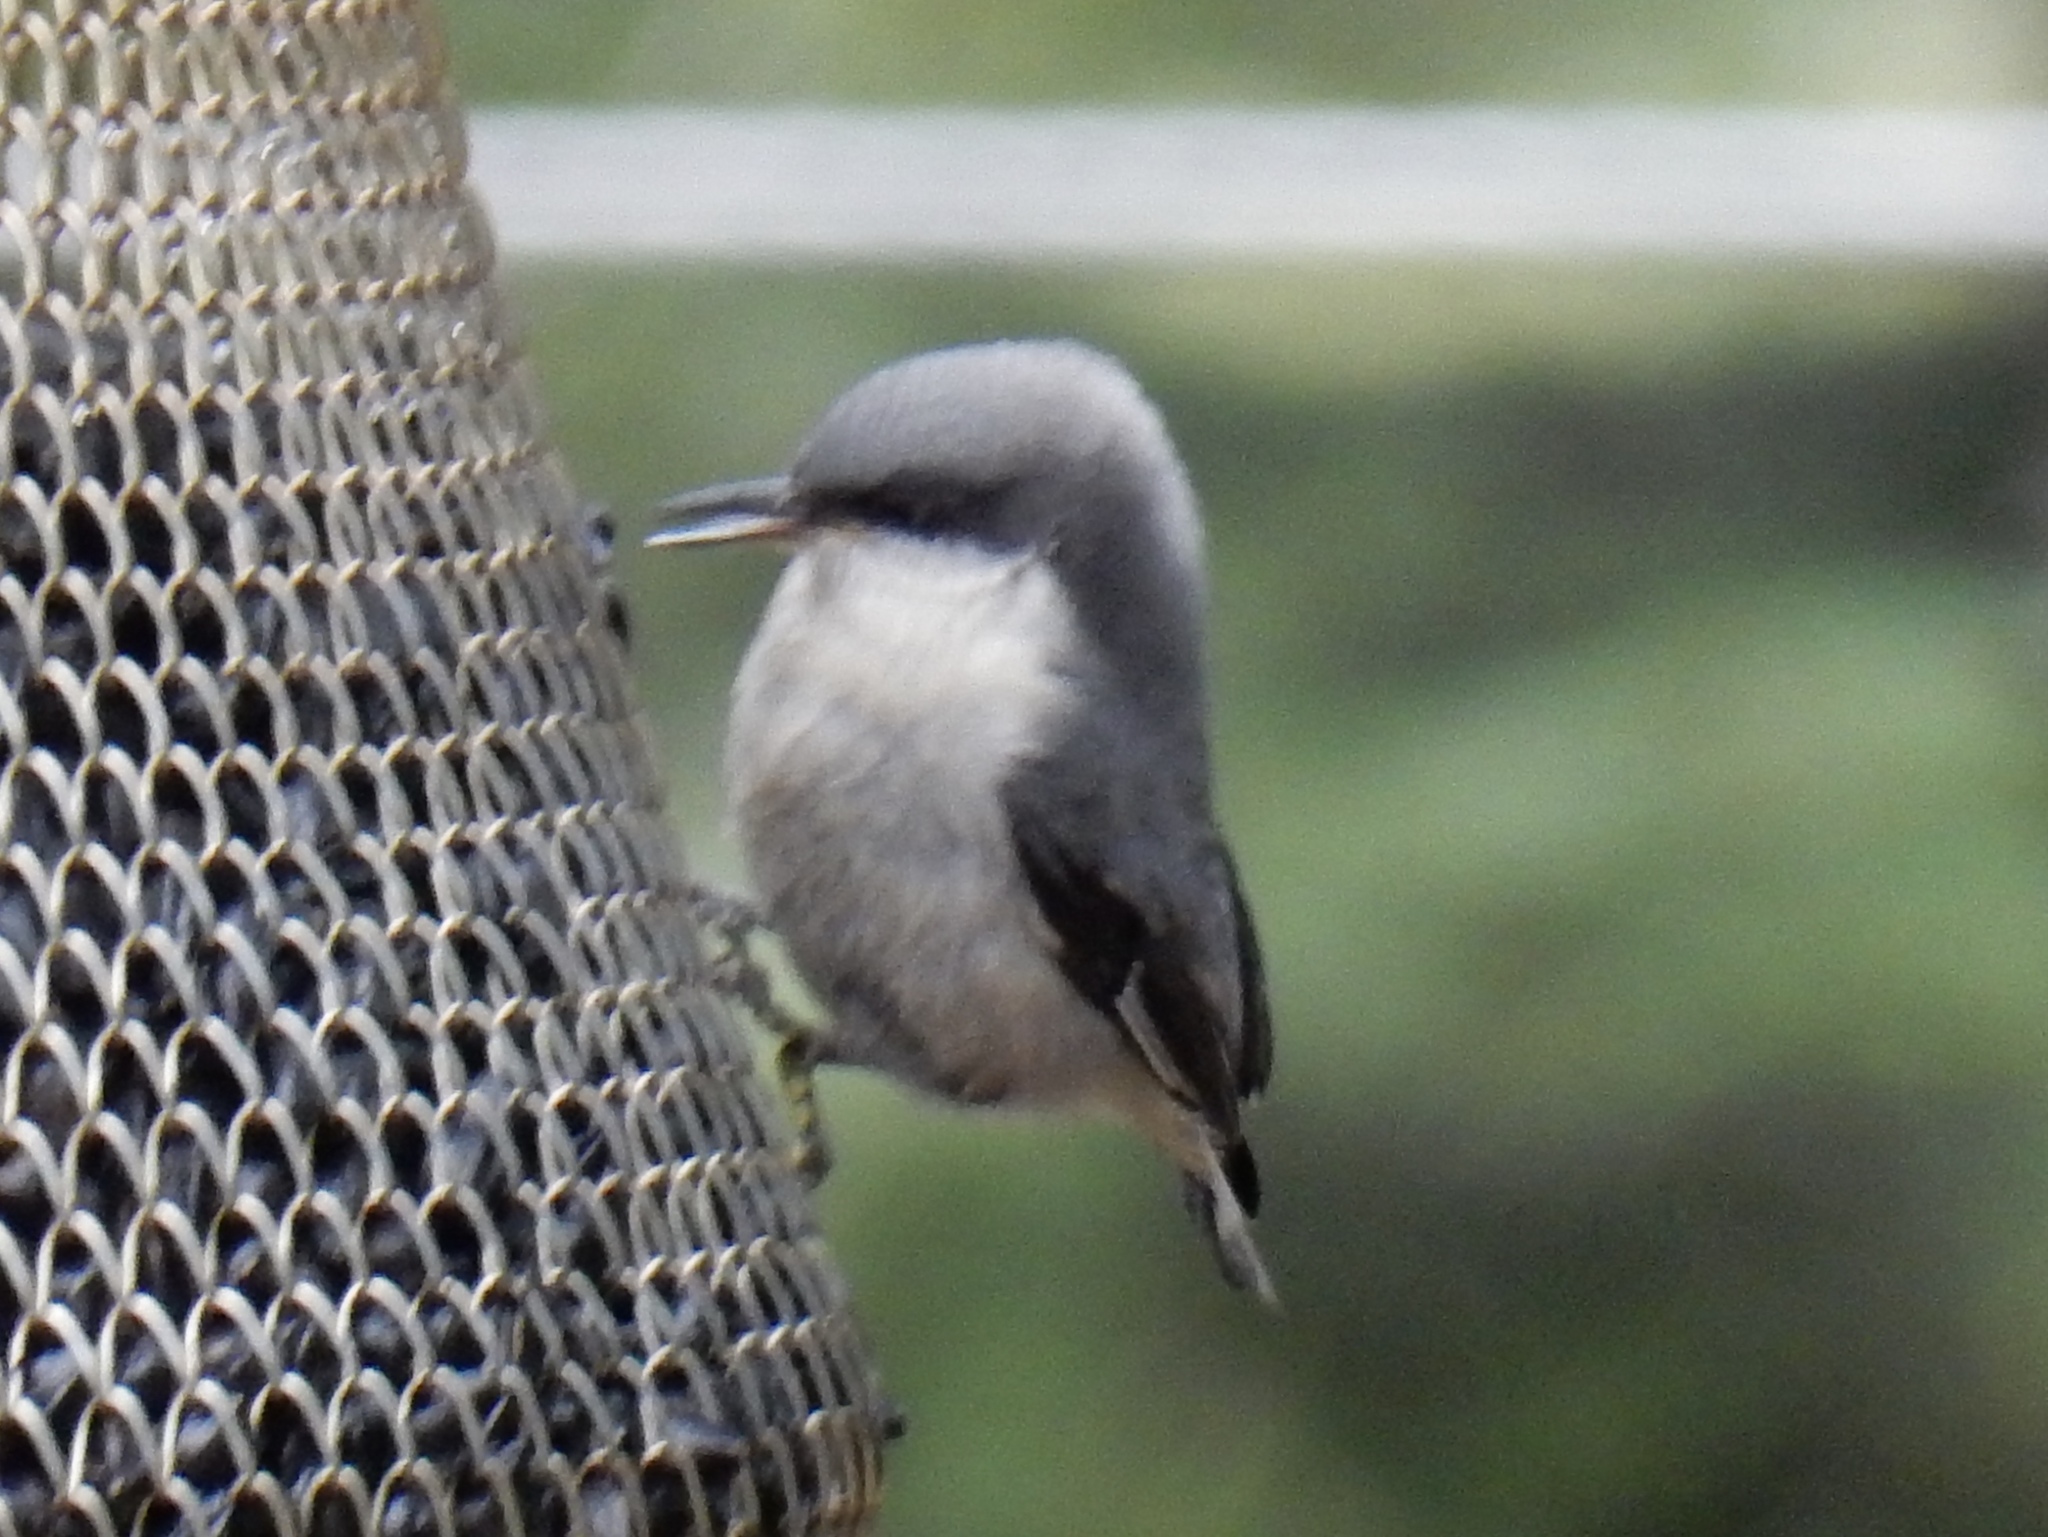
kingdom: Animalia
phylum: Chordata
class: Aves
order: Passeriformes
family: Sittidae
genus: Sitta
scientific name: Sitta pygmaea
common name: Pygmy nuthatch
